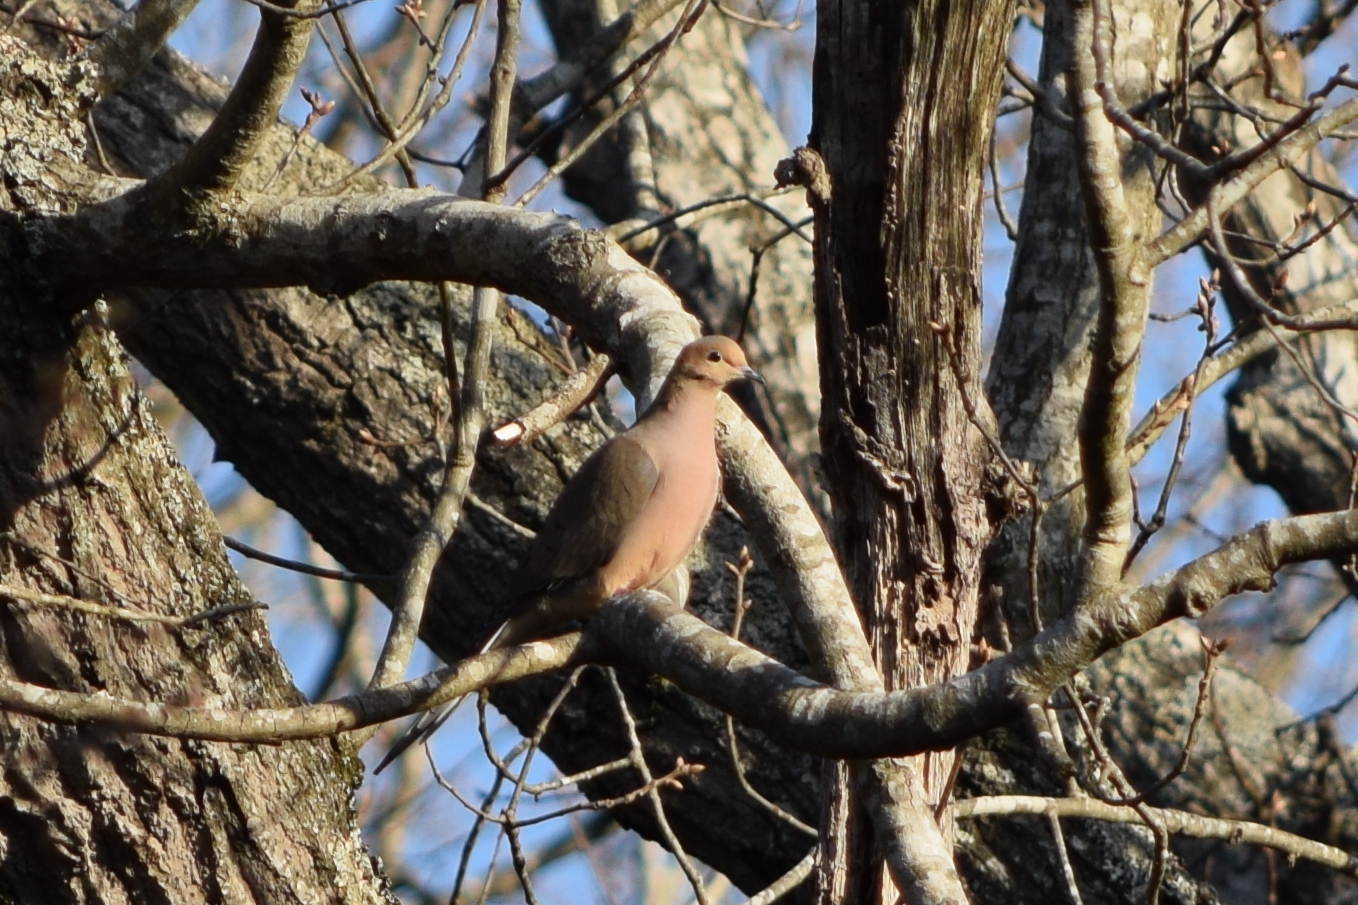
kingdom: Animalia
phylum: Chordata
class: Aves
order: Columbiformes
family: Columbidae
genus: Zenaida
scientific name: Zenaida macroura
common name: Mourning dove
